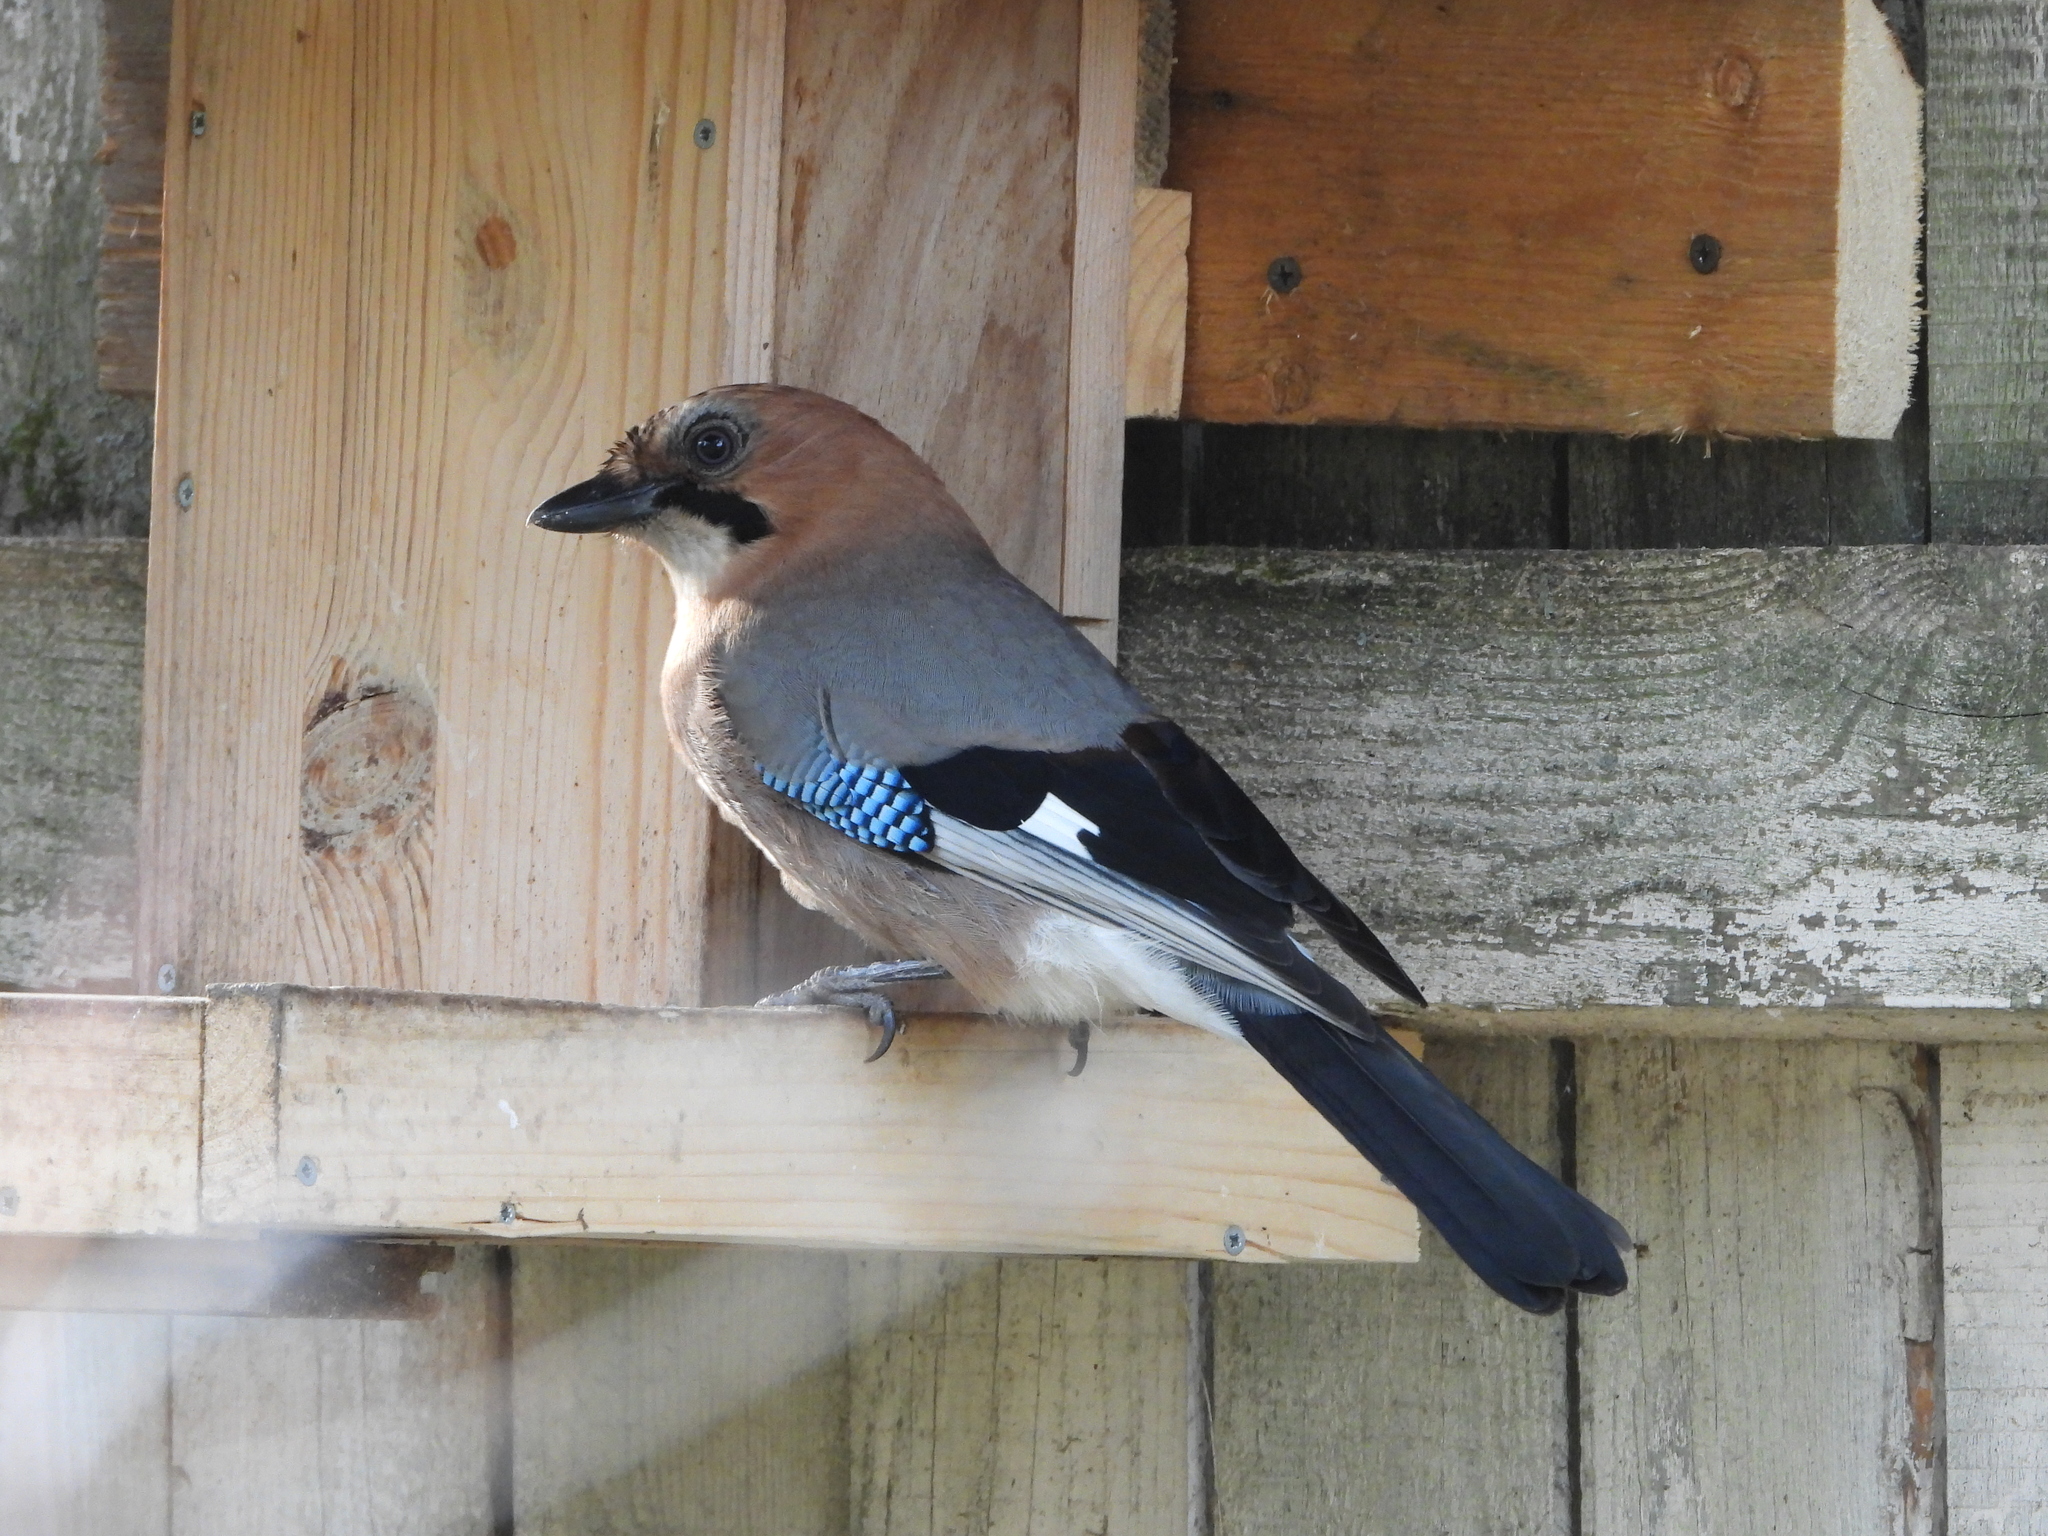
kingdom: Animalia
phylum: Chordata
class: Aves
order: Passeriformes
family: Corvidae
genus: Garrulus
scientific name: Garrulus glandarius
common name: Eurasian jay
